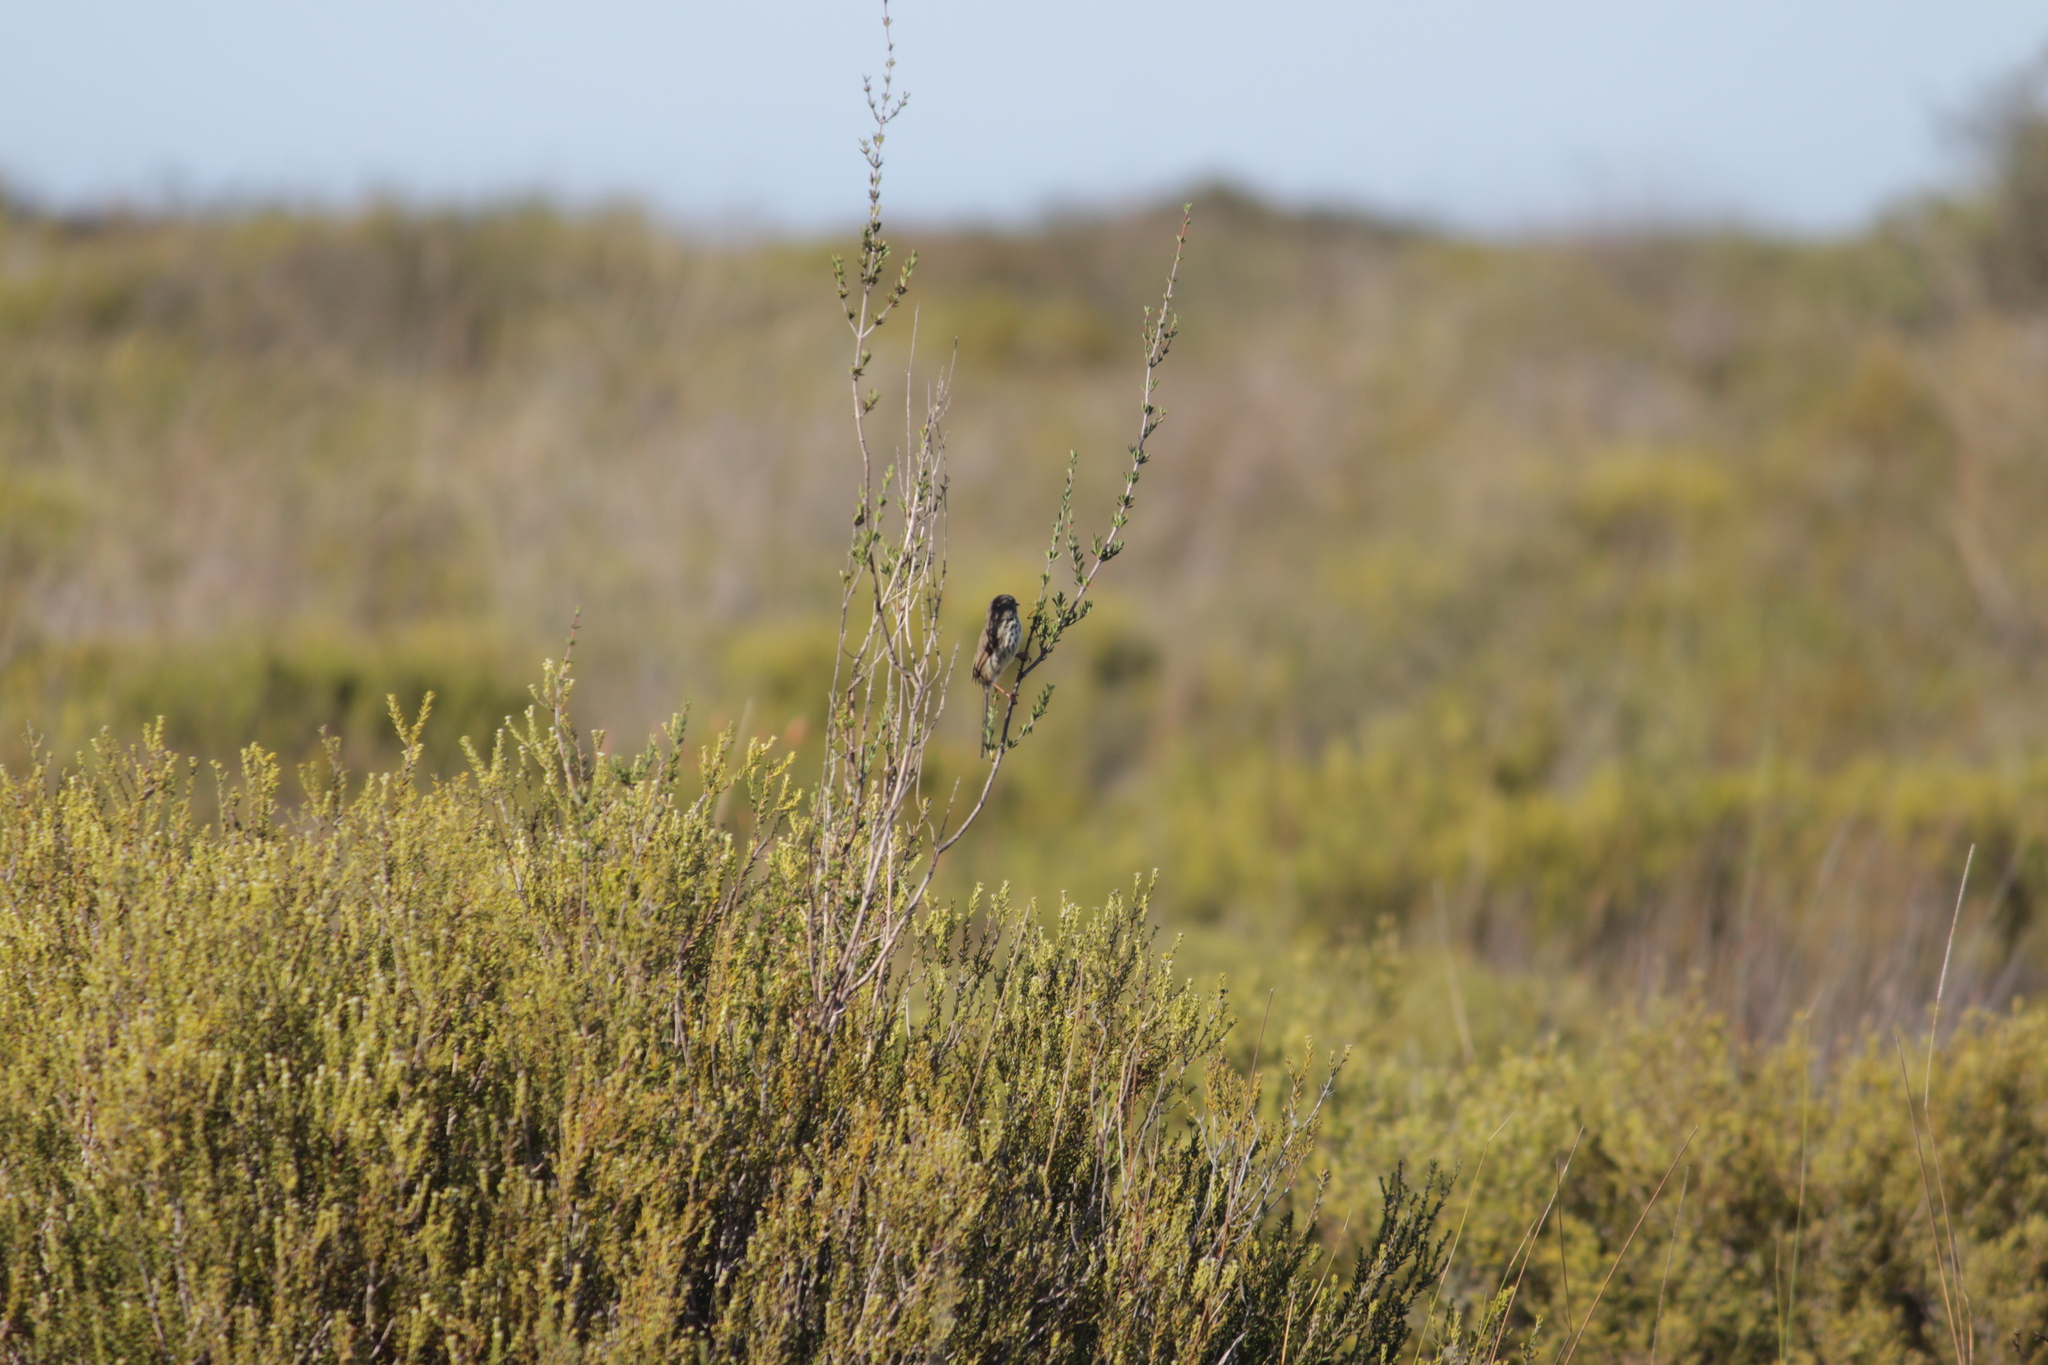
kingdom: Animalia
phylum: Chordata
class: Aves
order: Passeriformes
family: Cisticolidae
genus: Prinia
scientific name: Prinia maculosa
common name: Karoo prinia
